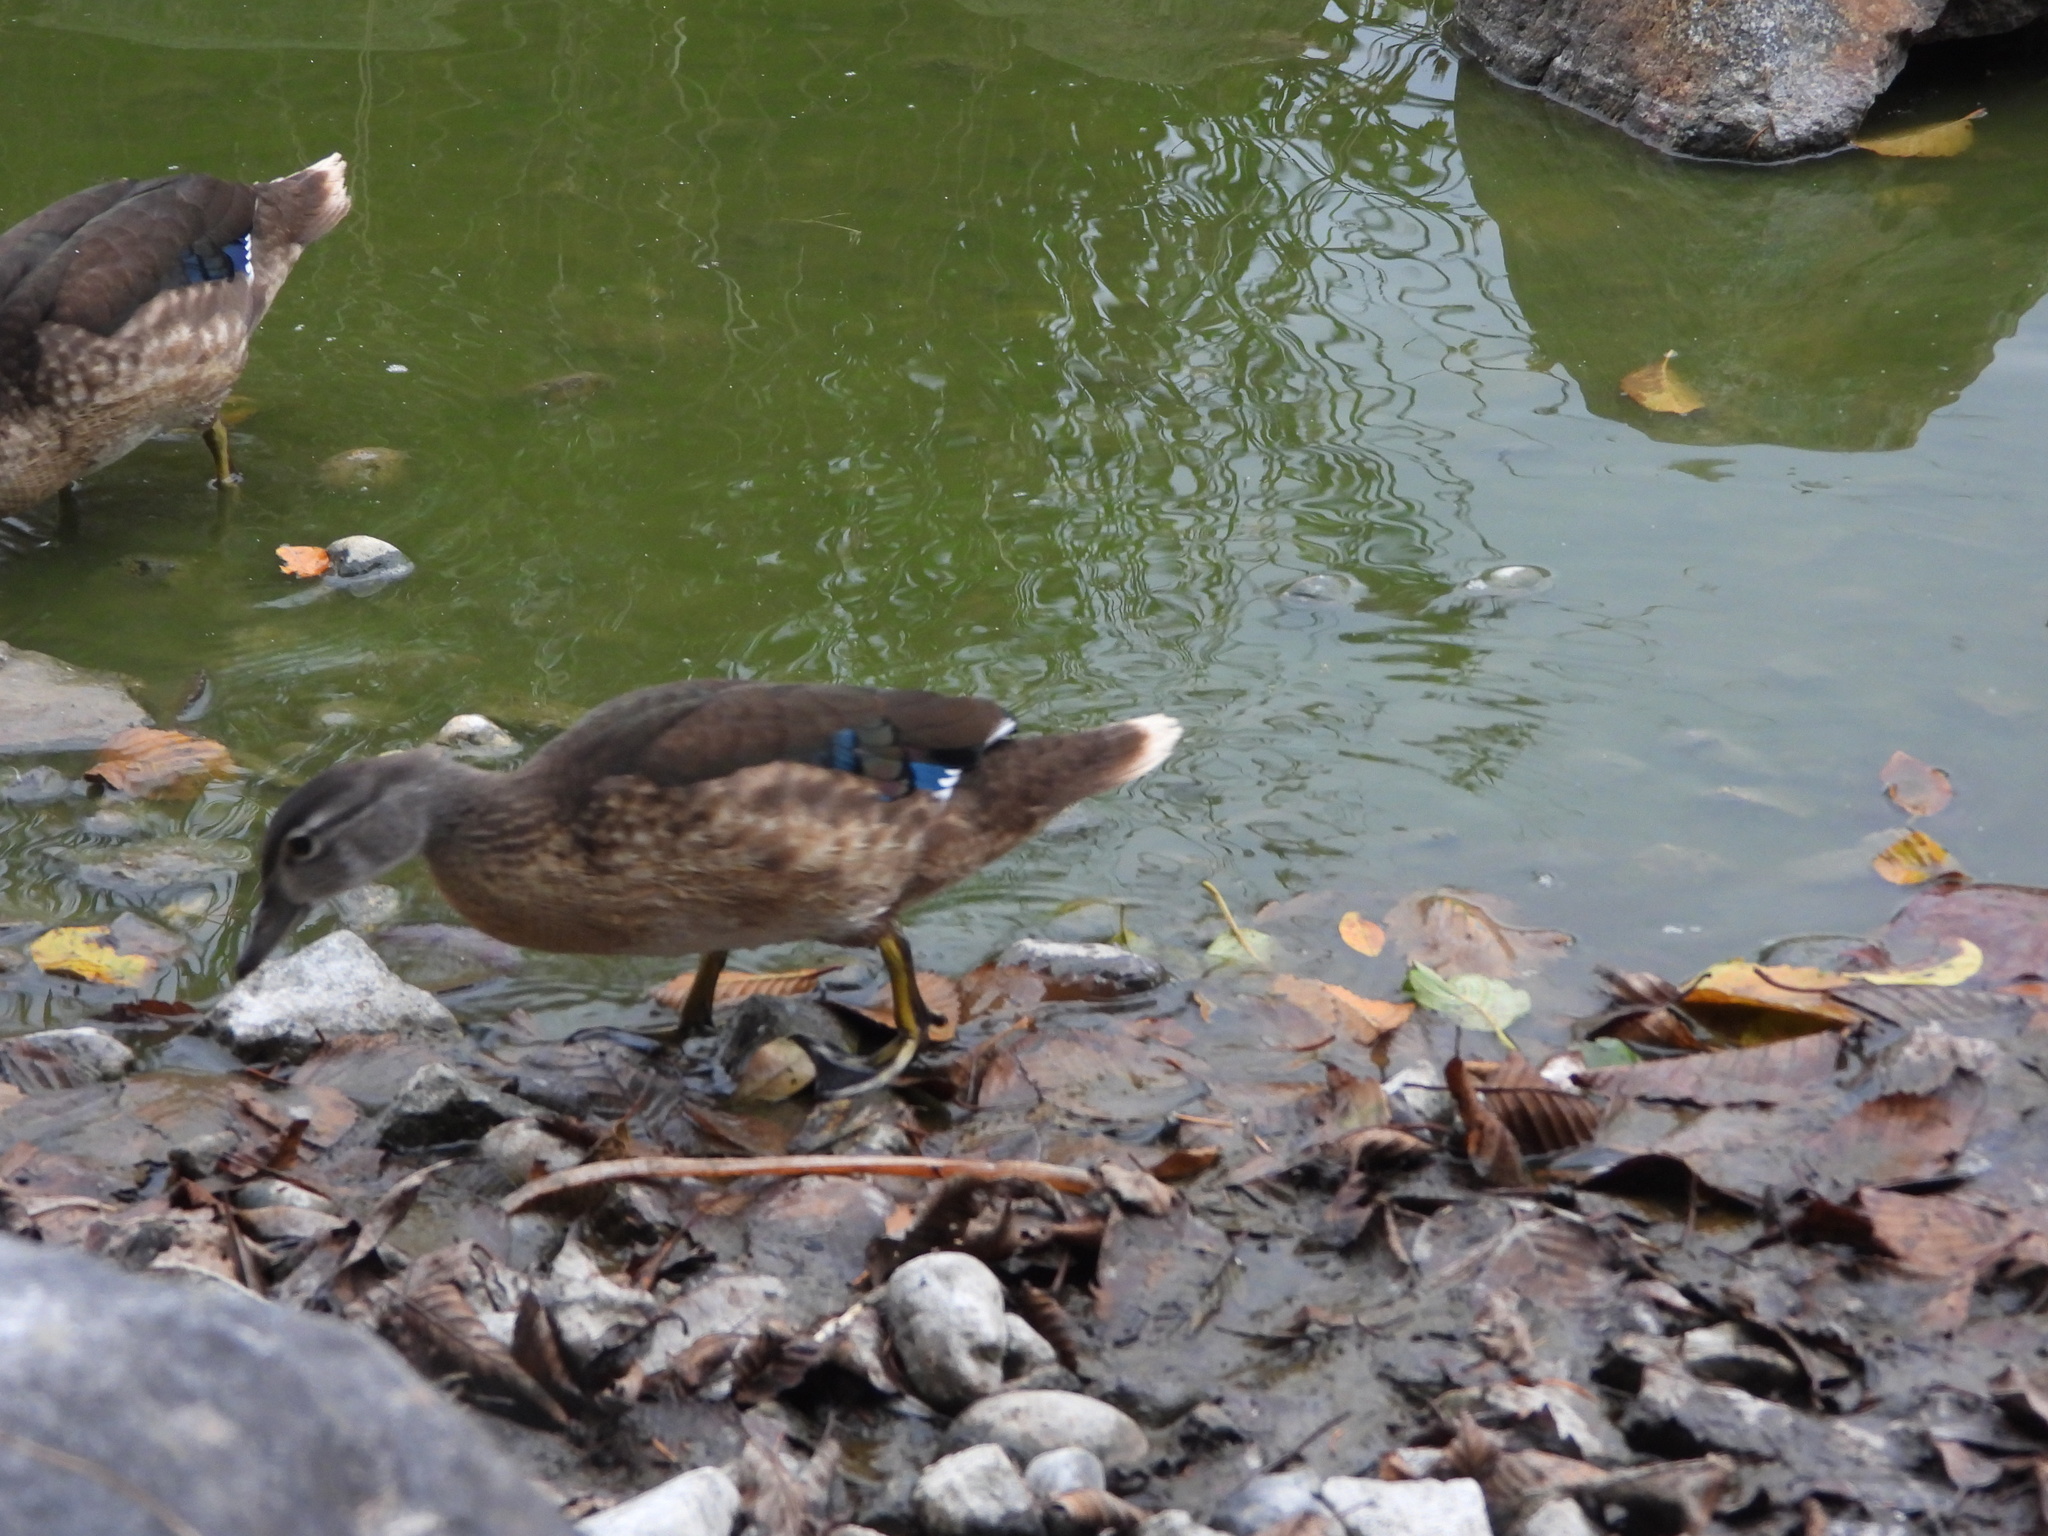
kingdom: Animalia
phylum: Chordata
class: Aves
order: Anseriformes
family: Anatidae
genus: Aix
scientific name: Aix sponsa
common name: Wood duck
